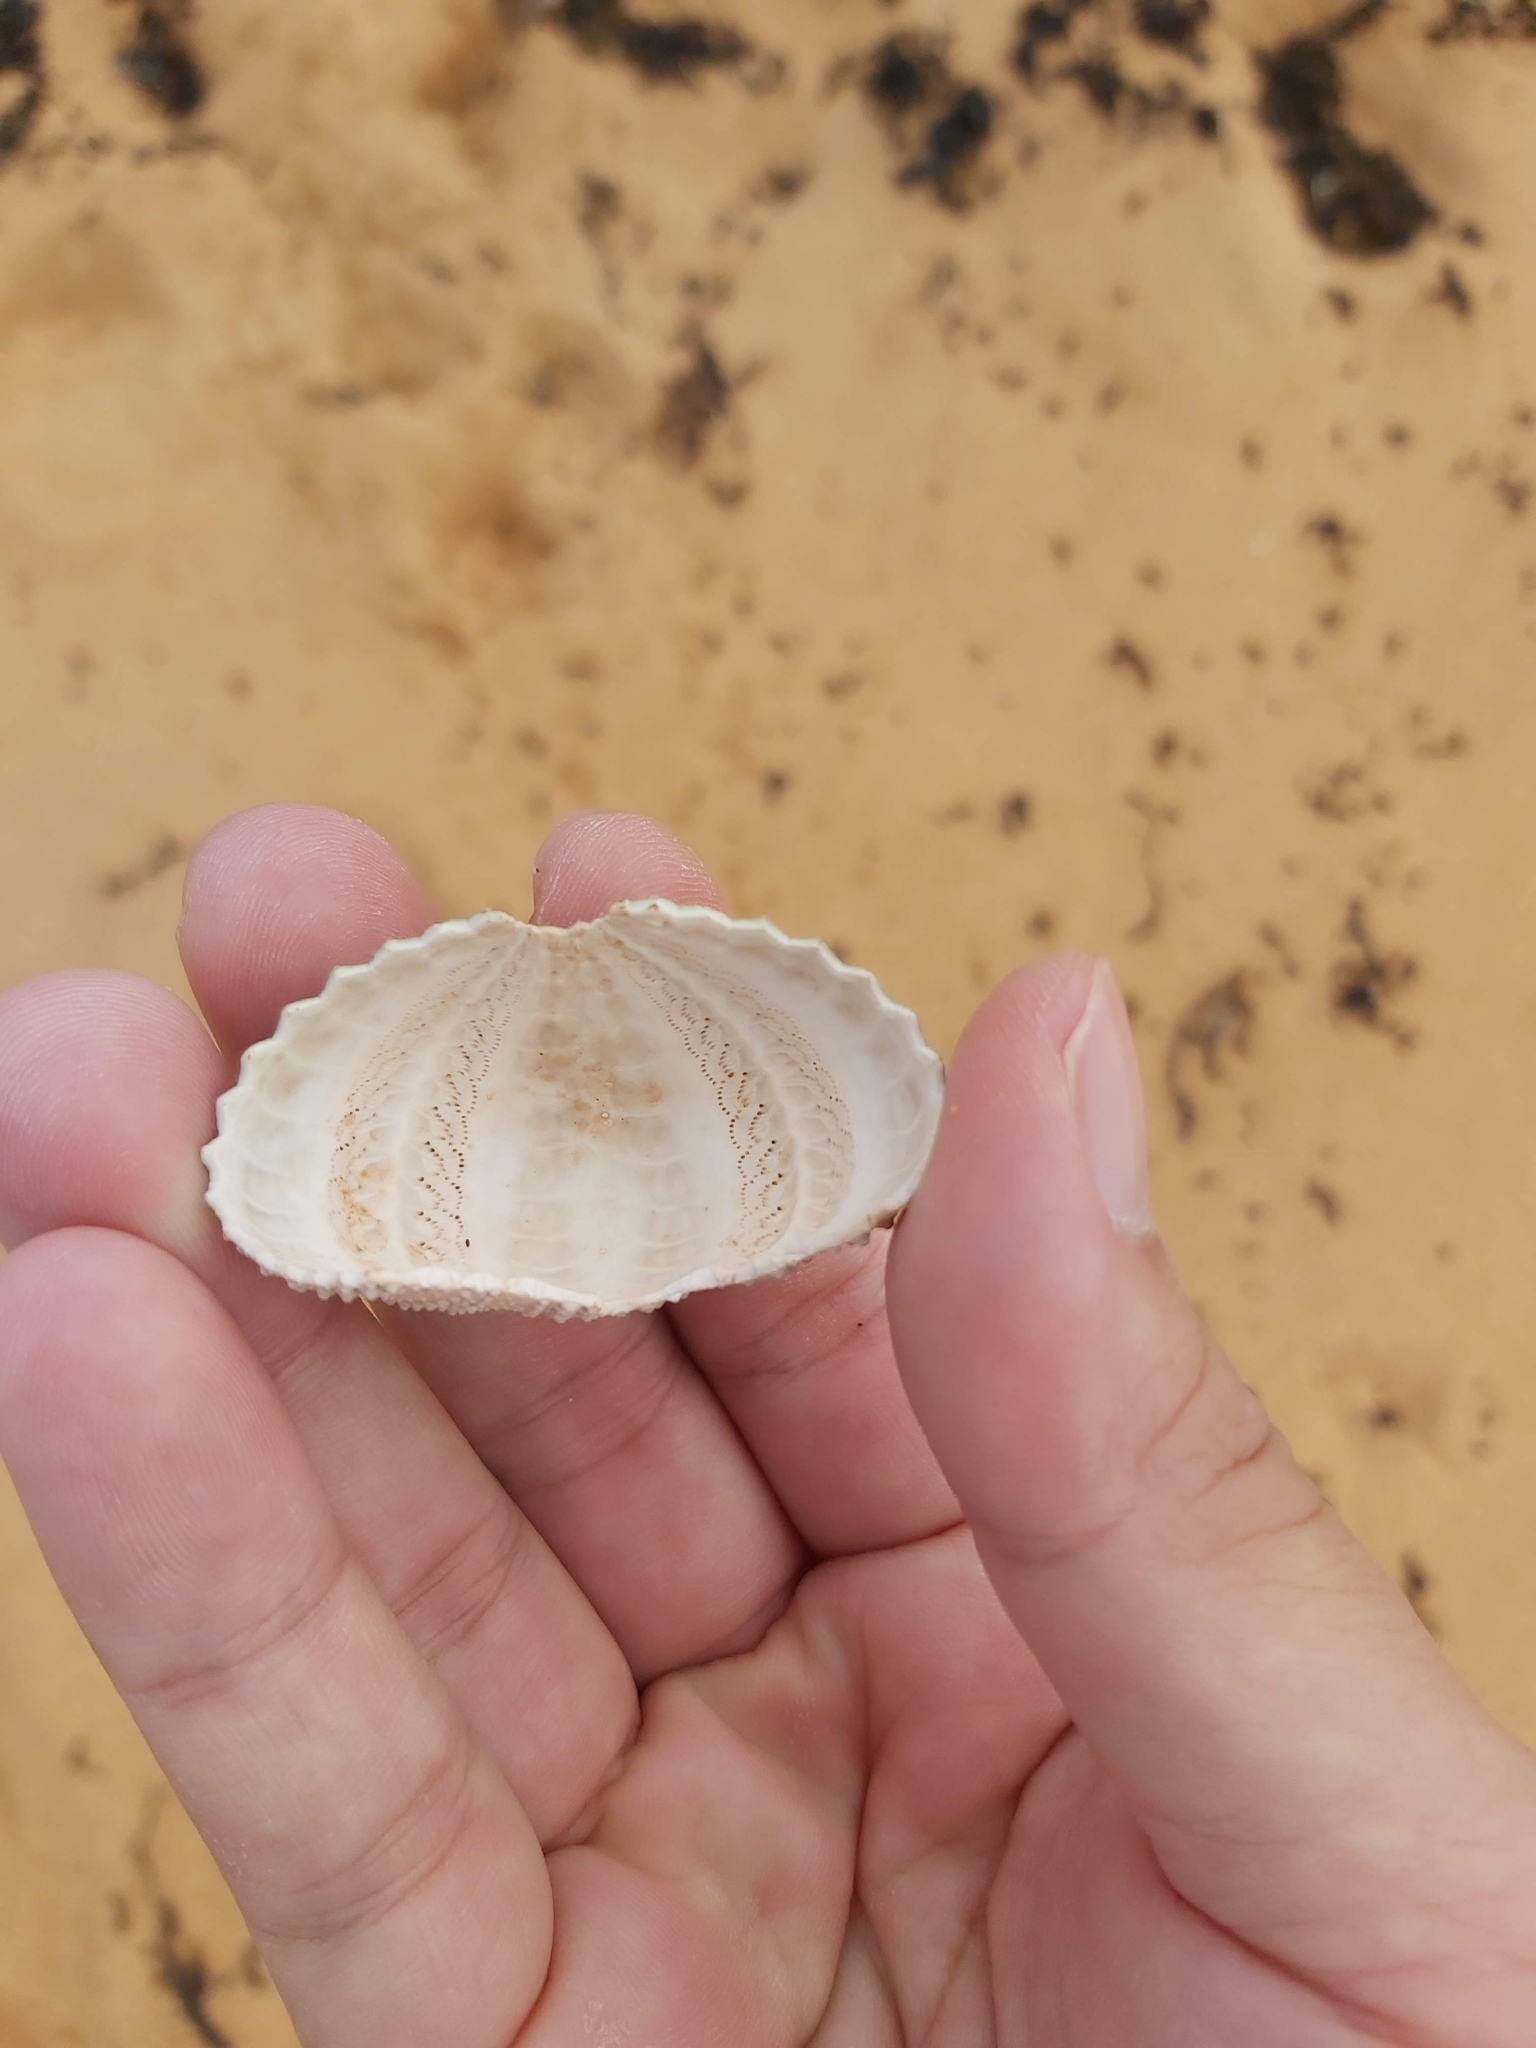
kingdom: Animalia
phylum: Echinodermata
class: Echinoidea
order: Camarodonta
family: Echinometridae
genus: Heliocidaris
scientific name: Heliocidaris erythrogramma
